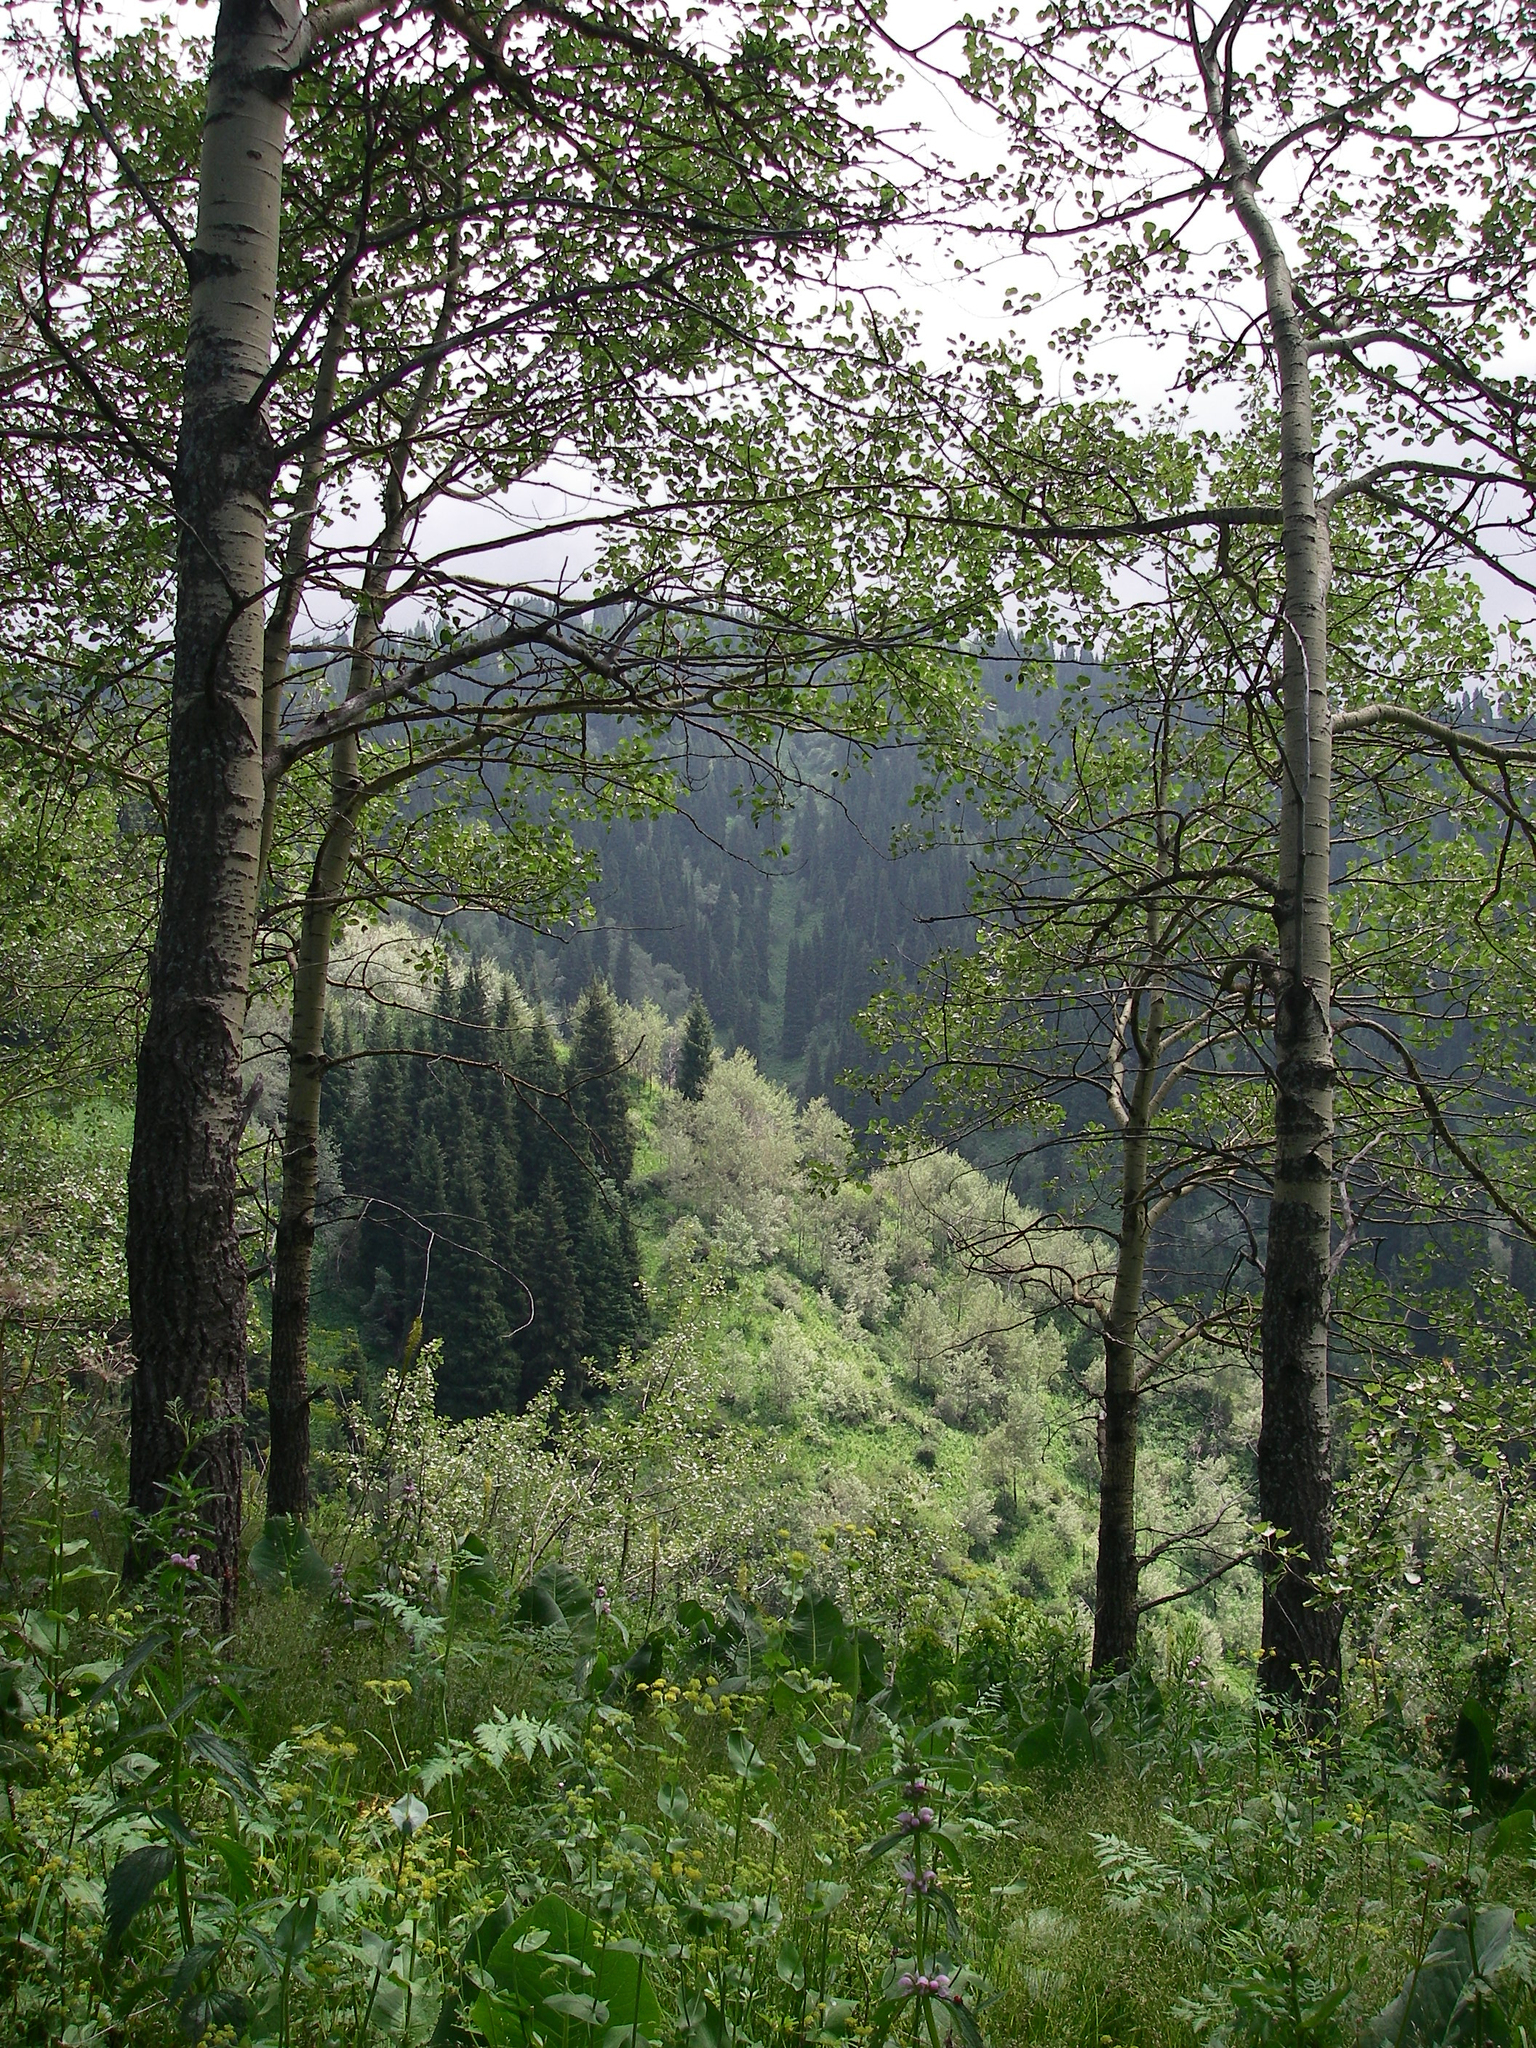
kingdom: Plantae
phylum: Tracheophyta
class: Magnoliopsida
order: Malpighiales
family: Salicaceae
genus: Populus
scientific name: Populus tremula
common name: European aspen
